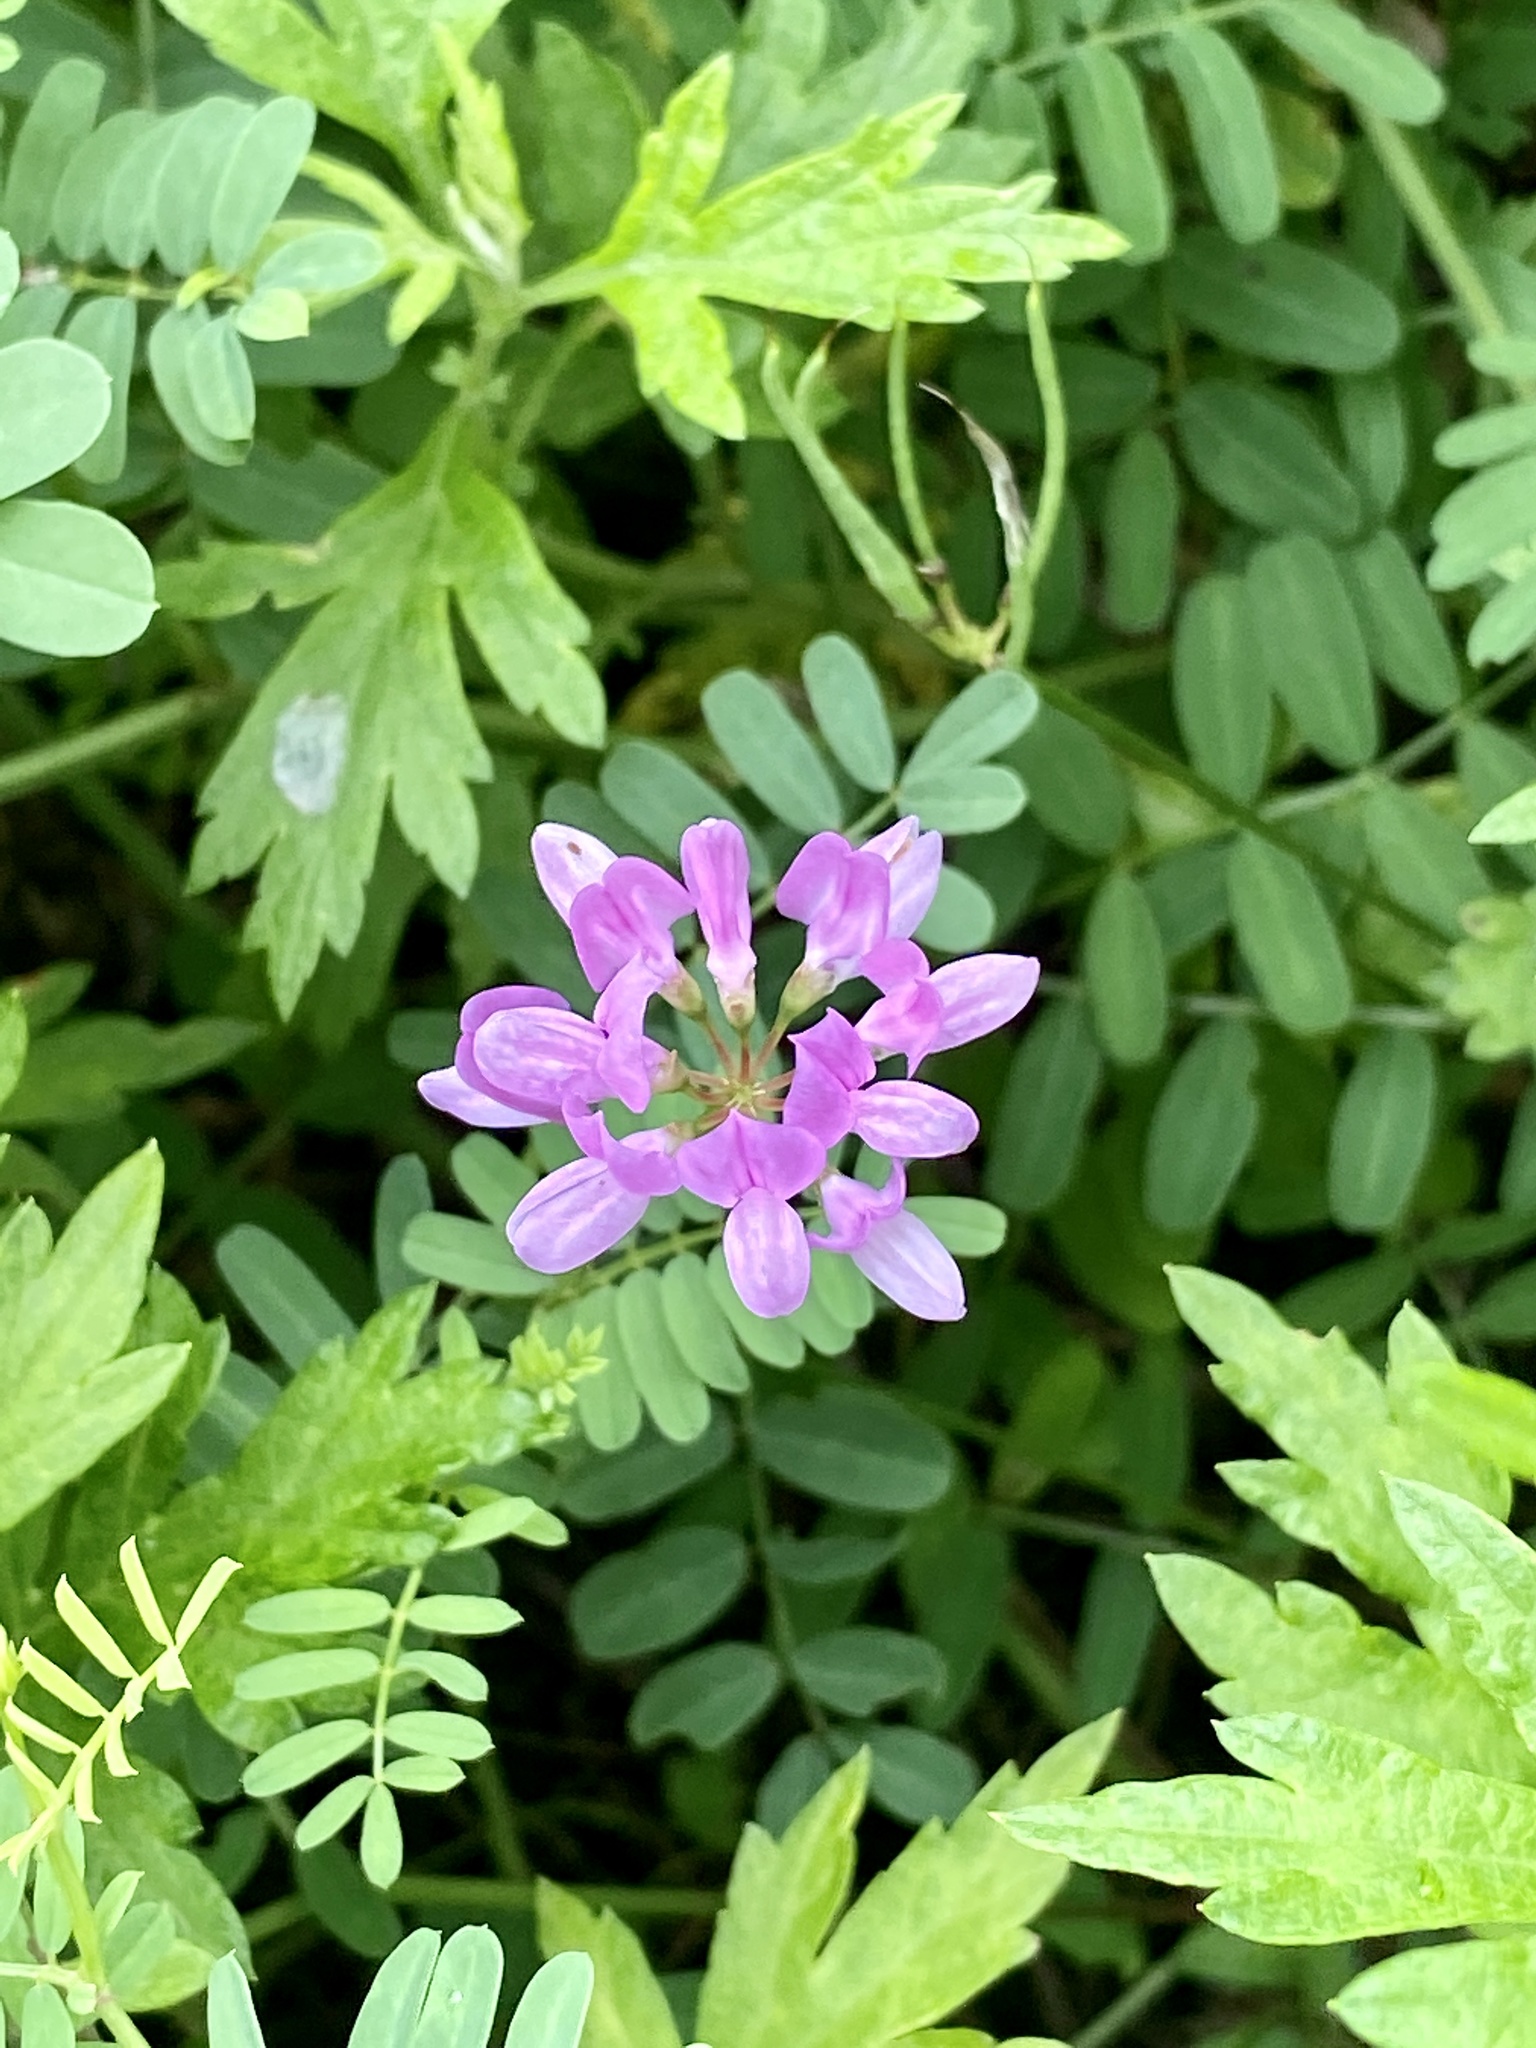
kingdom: Plantae
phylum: Tracheophyta
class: Magnoliopsida
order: Fabales
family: Fabaceae
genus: Coronilla
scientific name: Coronilla varia
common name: Crownvetch
